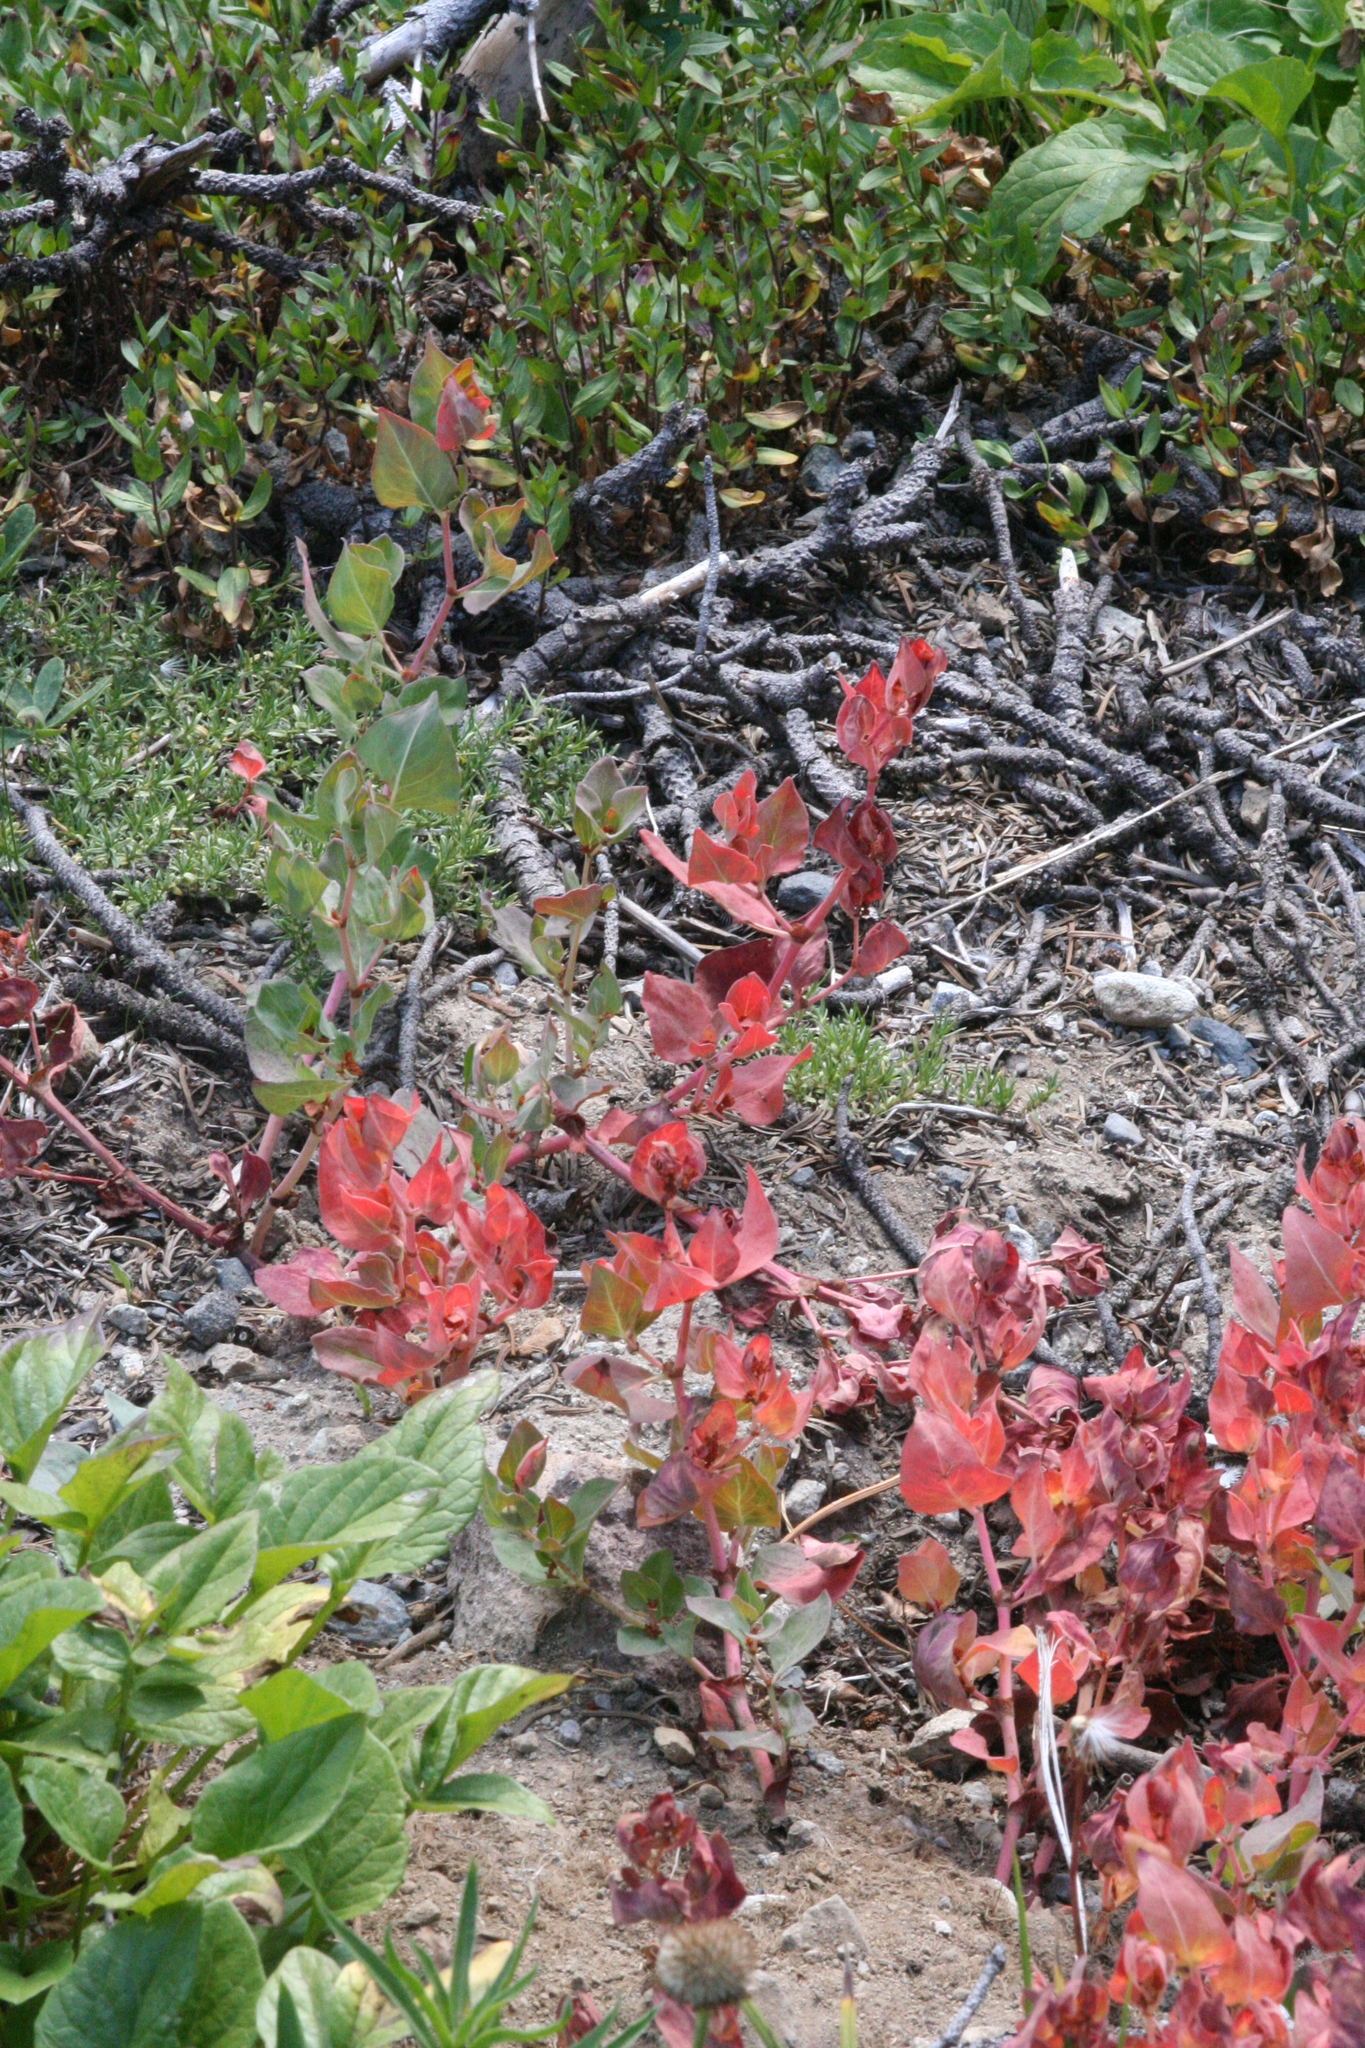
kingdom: Plantae
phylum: Tracheophyta
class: Magnoliopsida
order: Caryophyllales
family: Polygonaceae
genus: Koenigia
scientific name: Koenigia davisiae
